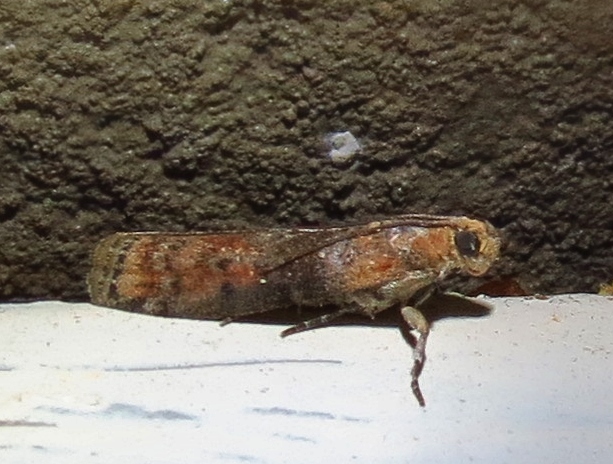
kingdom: Animalia
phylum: Arthropoda
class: Insecta
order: Lepidoptera
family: Pyralidae
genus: Sciota
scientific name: Sciota
